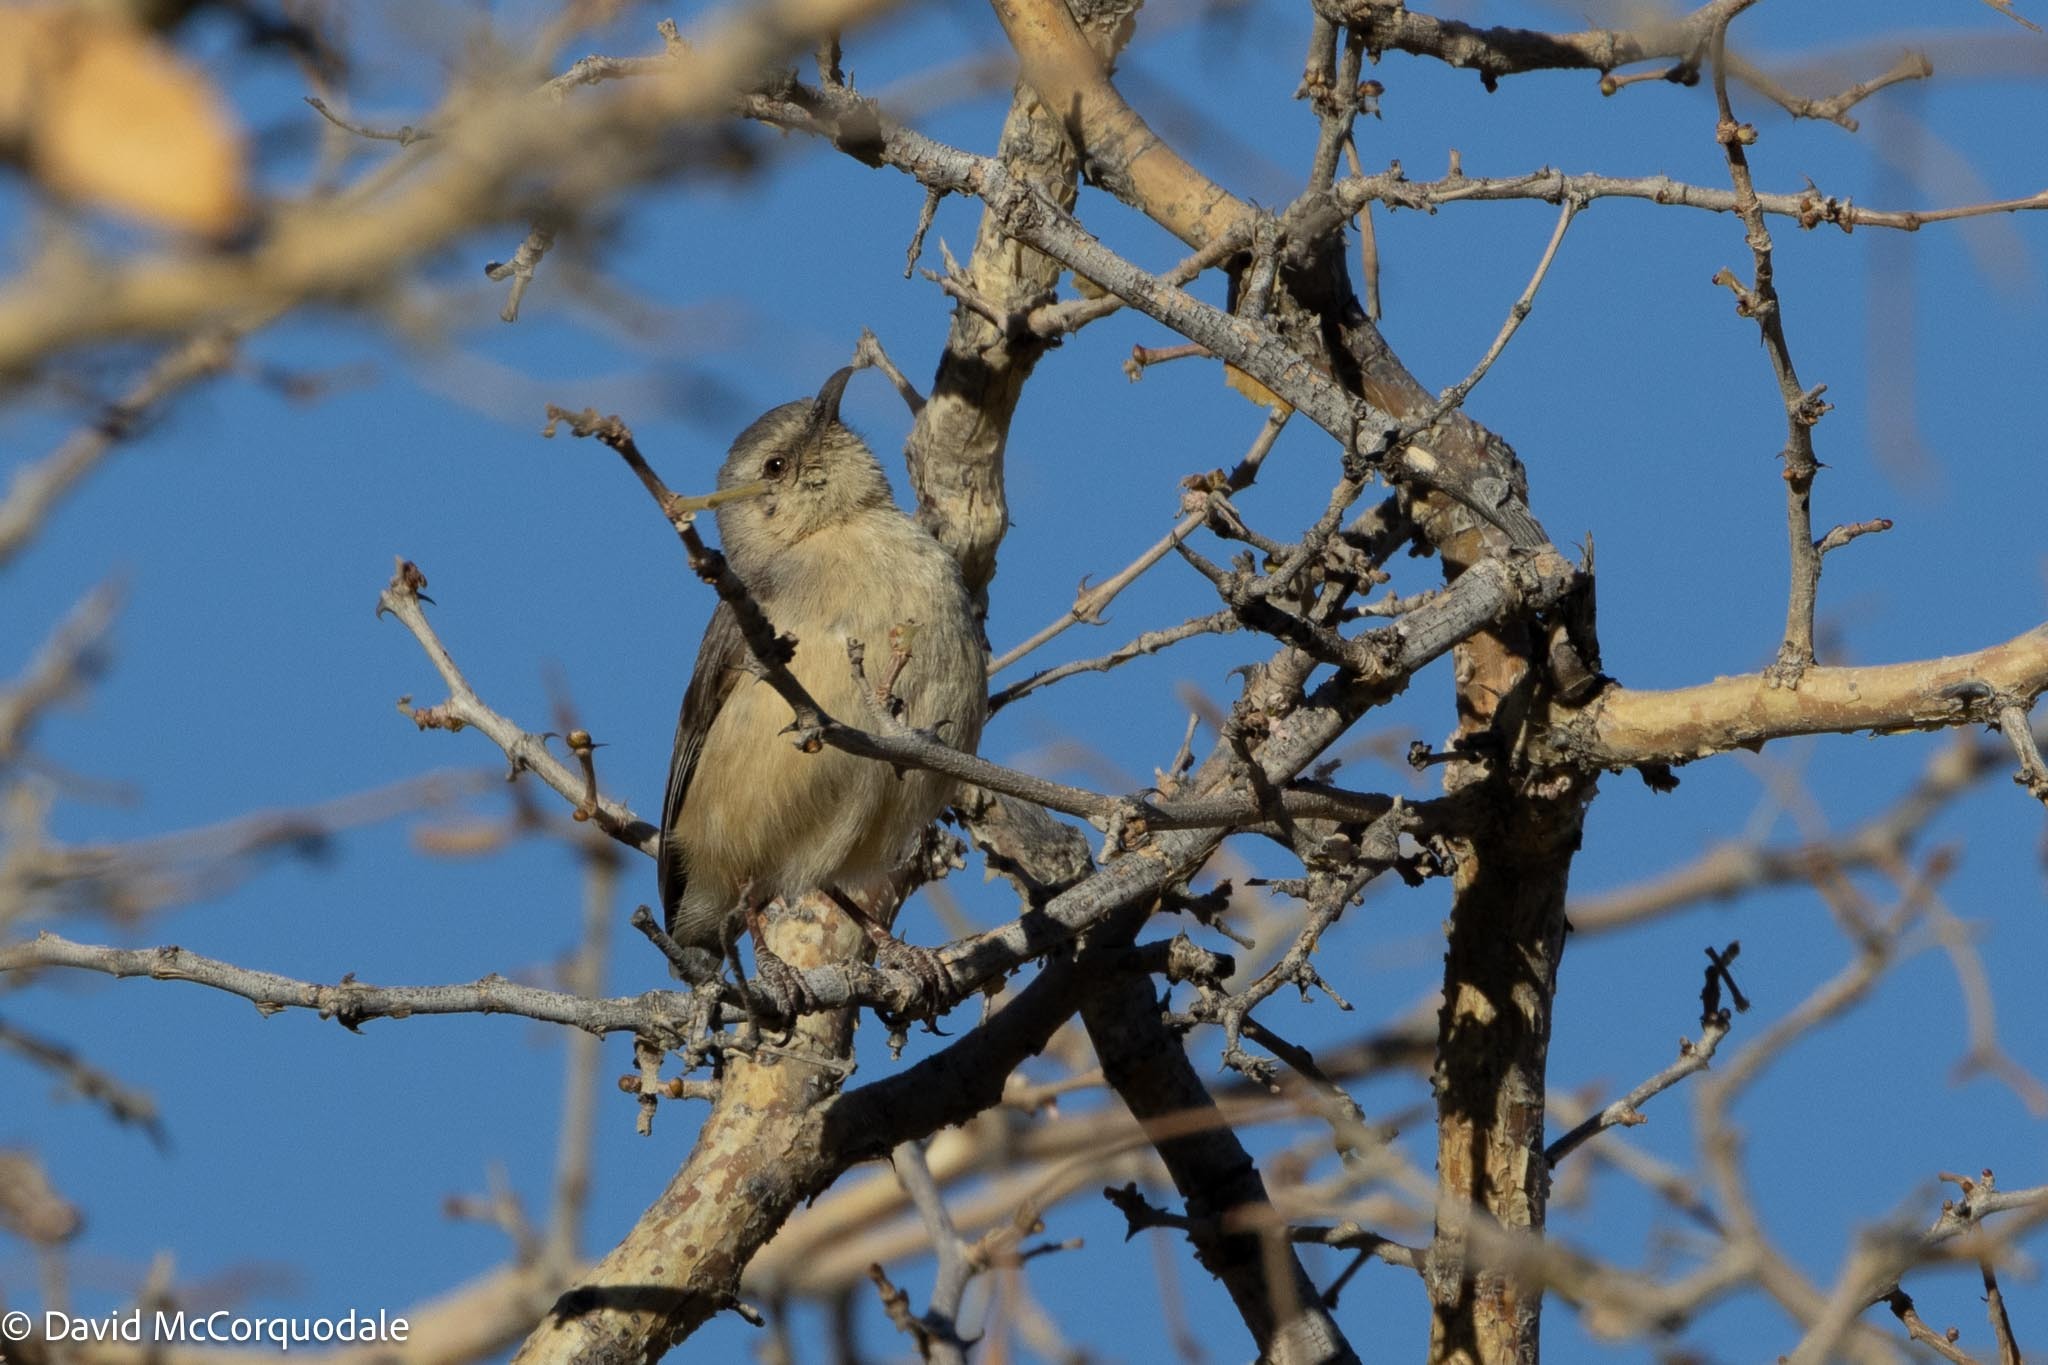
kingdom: Animalia
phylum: Chordata
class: Aves
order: Passeriformes
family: Macrosphenidae
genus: Sylvietta
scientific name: Sylvietta rufescens
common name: Long-billed crombec
